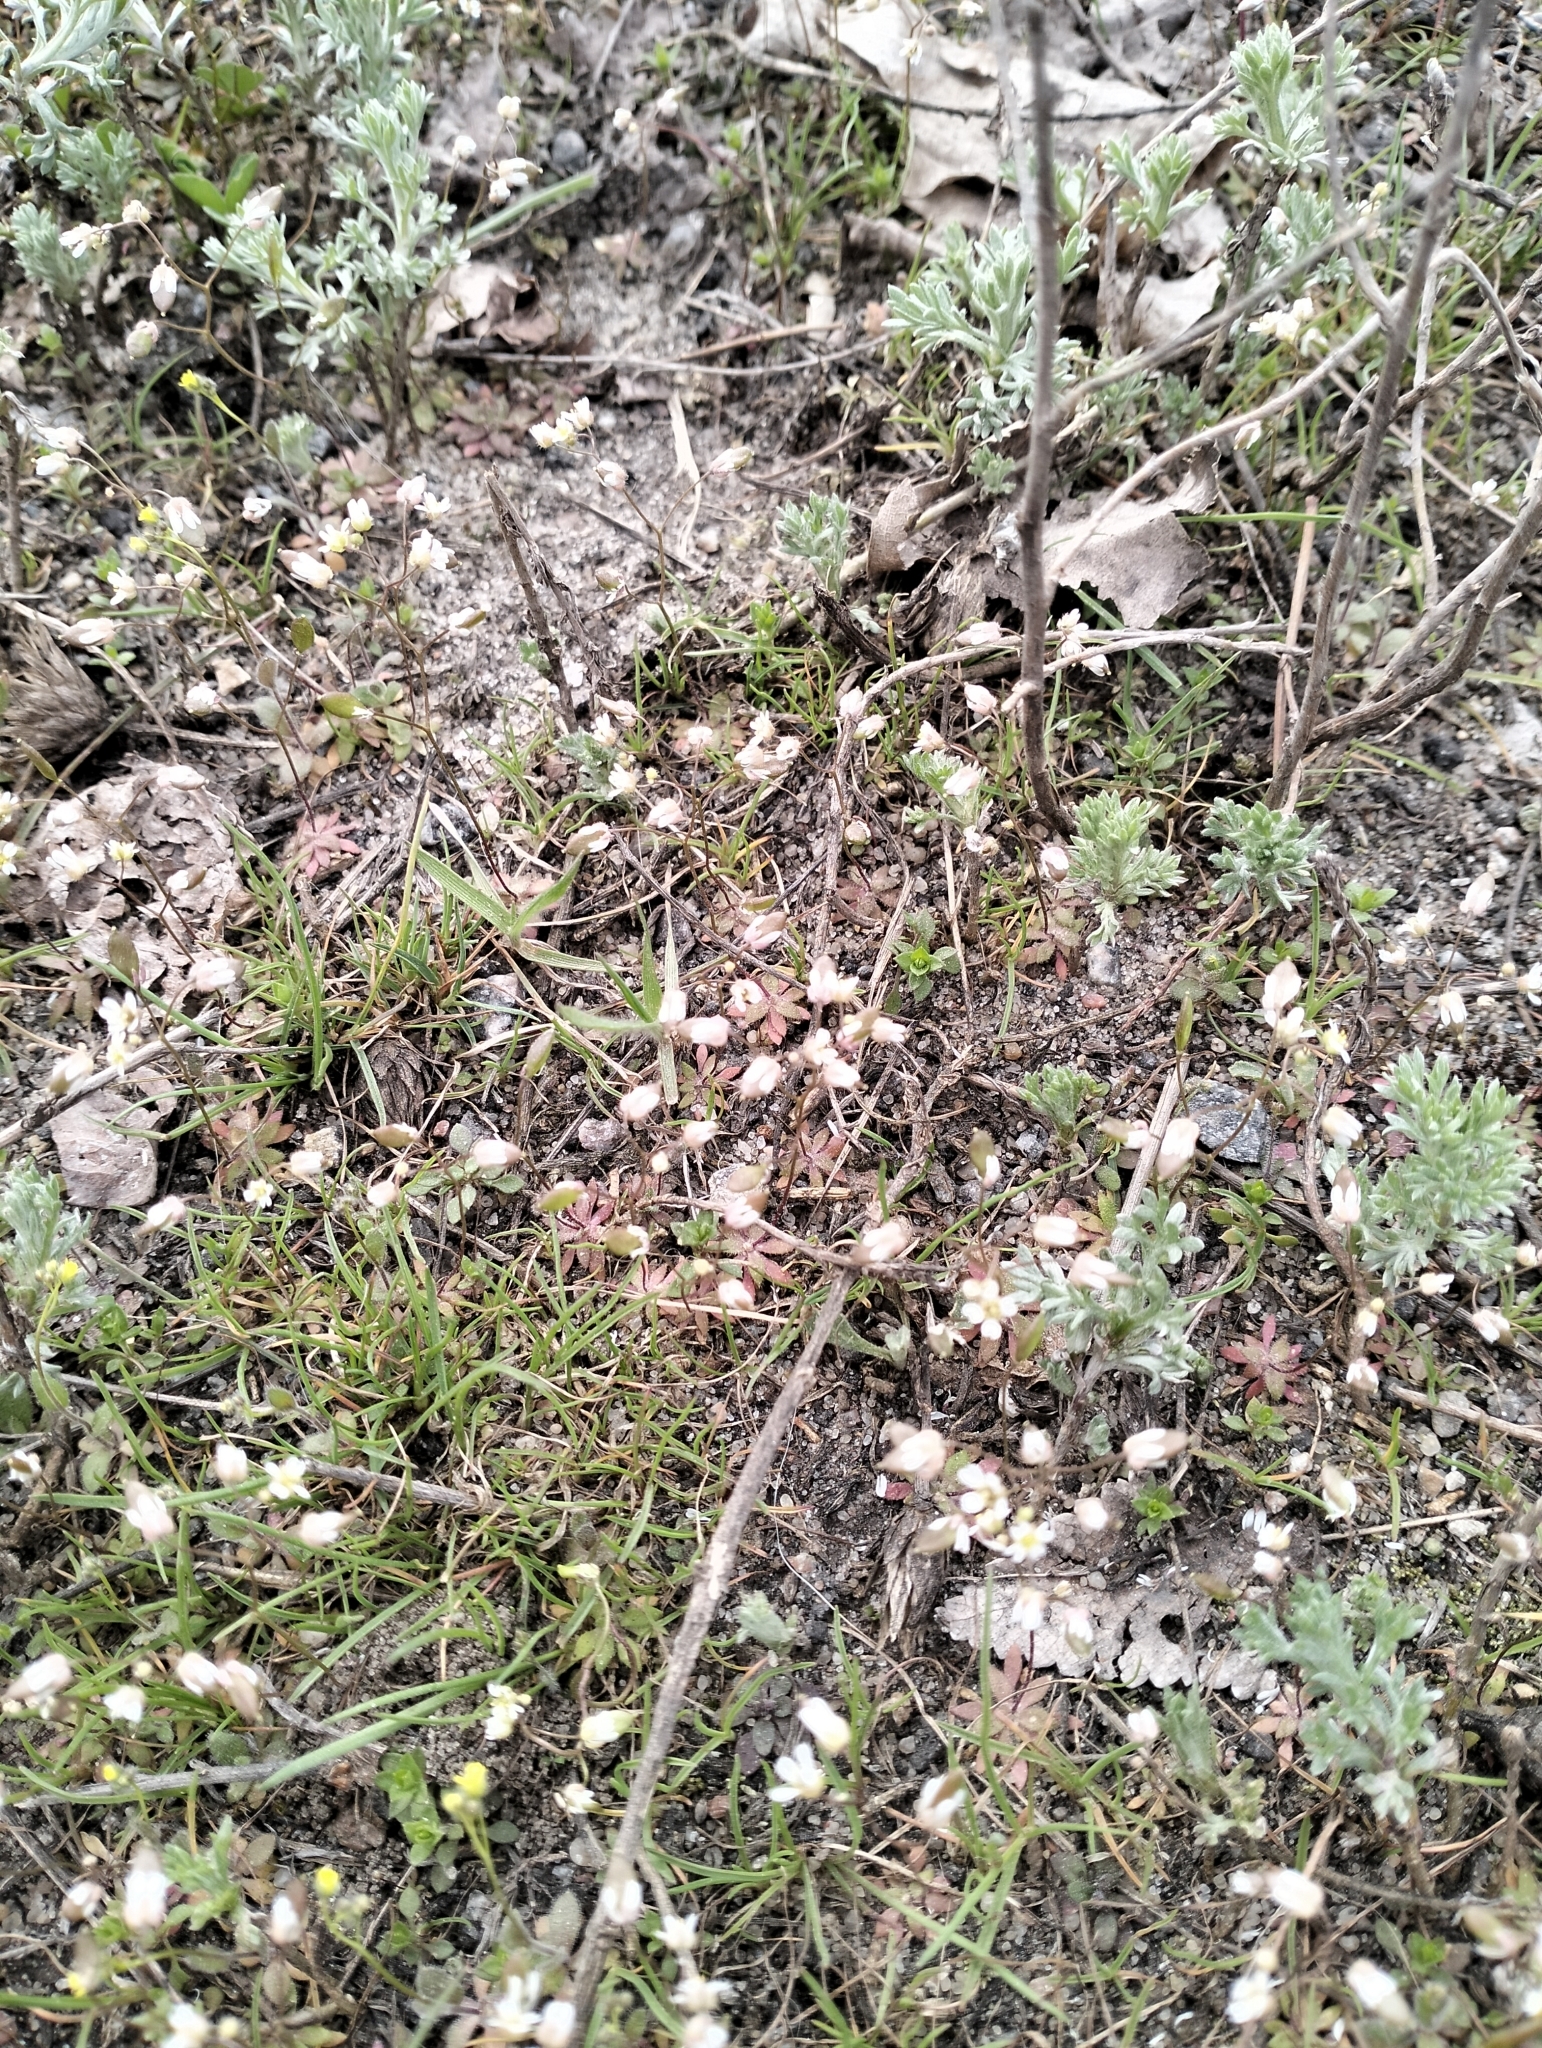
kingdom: Plantae
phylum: Tracheophyta
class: Magnoliopsida
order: Brassicales
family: Brassicaceae
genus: Draba
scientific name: Draba verna
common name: Spring draba
